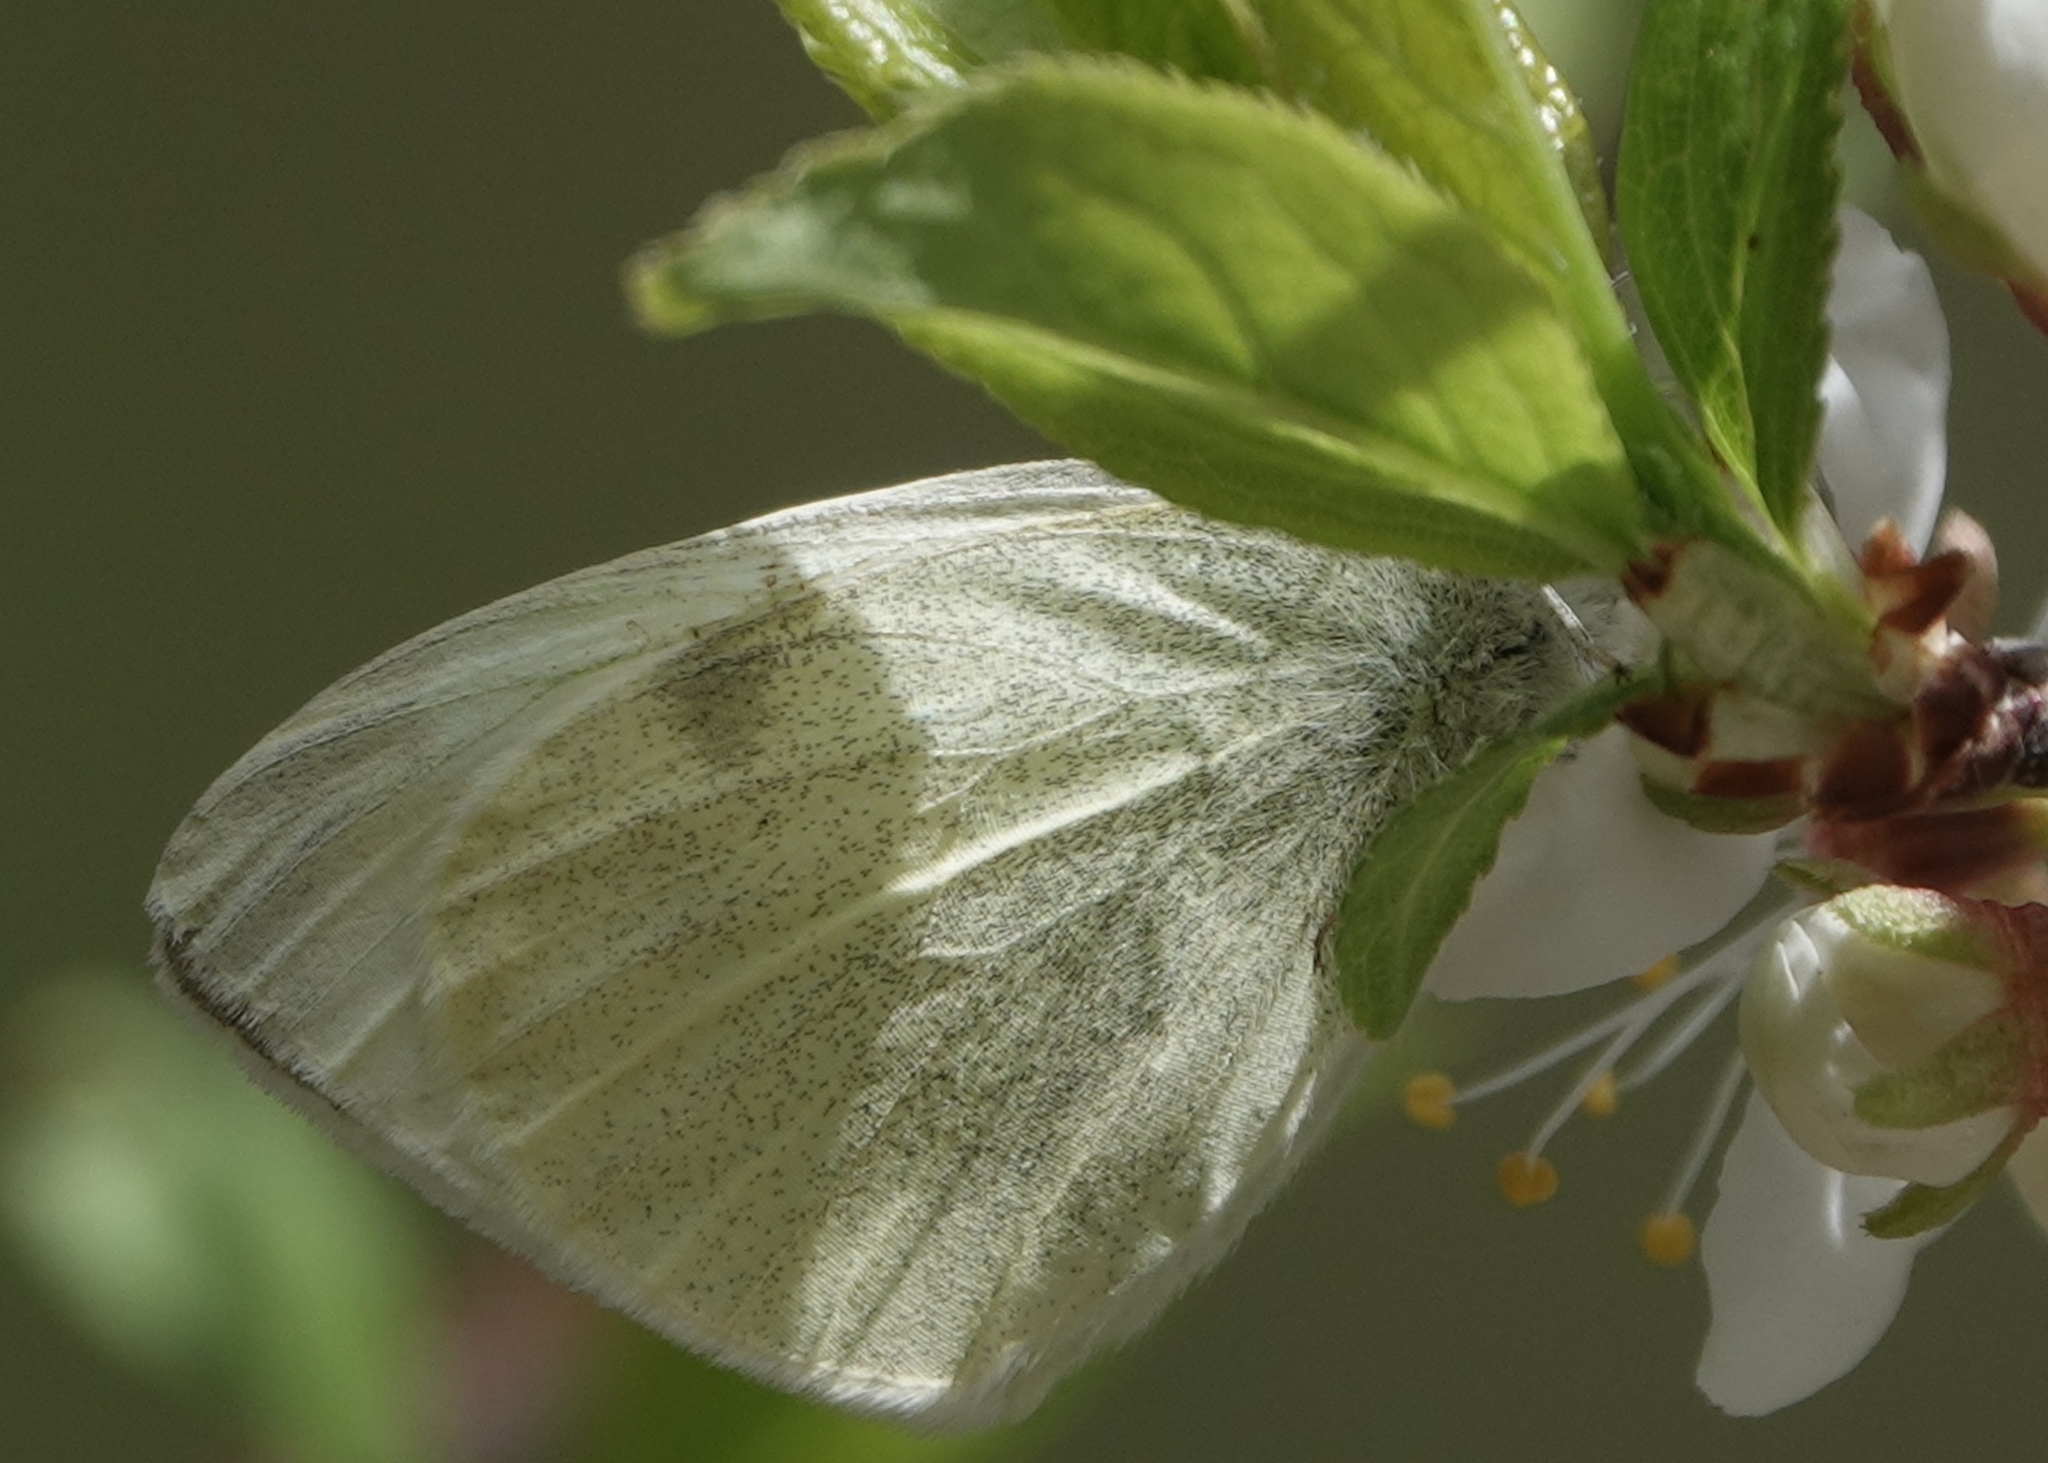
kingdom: Animalia
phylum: Arthropoda
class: Insecta
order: Lepidoptera
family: Pieridae
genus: Pieris
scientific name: Pieris rapae
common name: Small white
